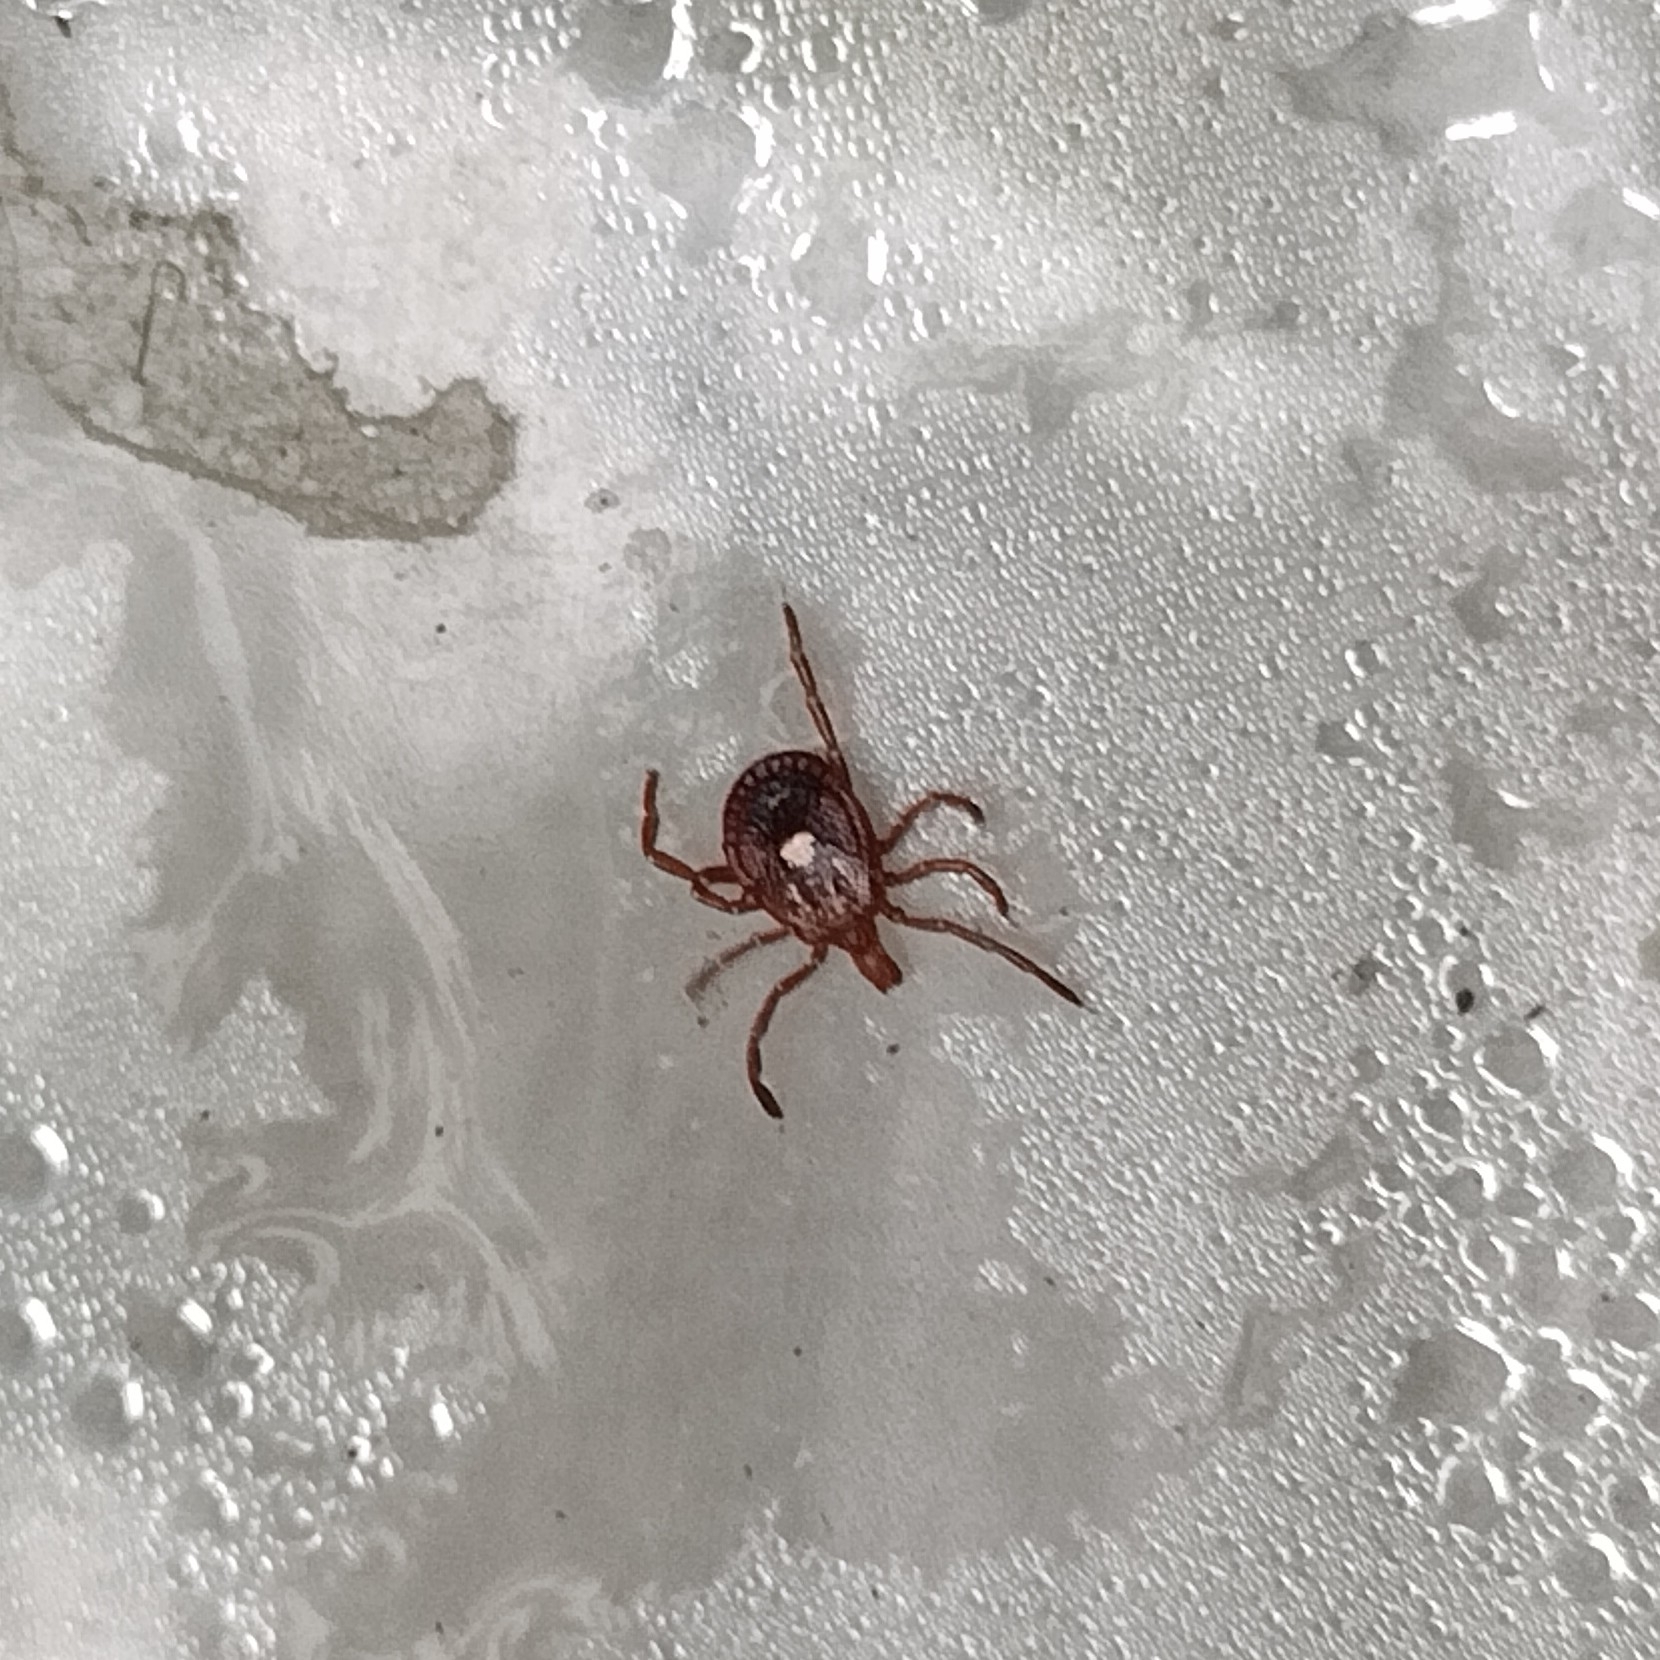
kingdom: Animalia
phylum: Arthropoda
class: Arachnida
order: Ixodida
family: Ixodidae
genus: Amblyomma
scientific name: Amblyomma americanum
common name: Lone star tick
